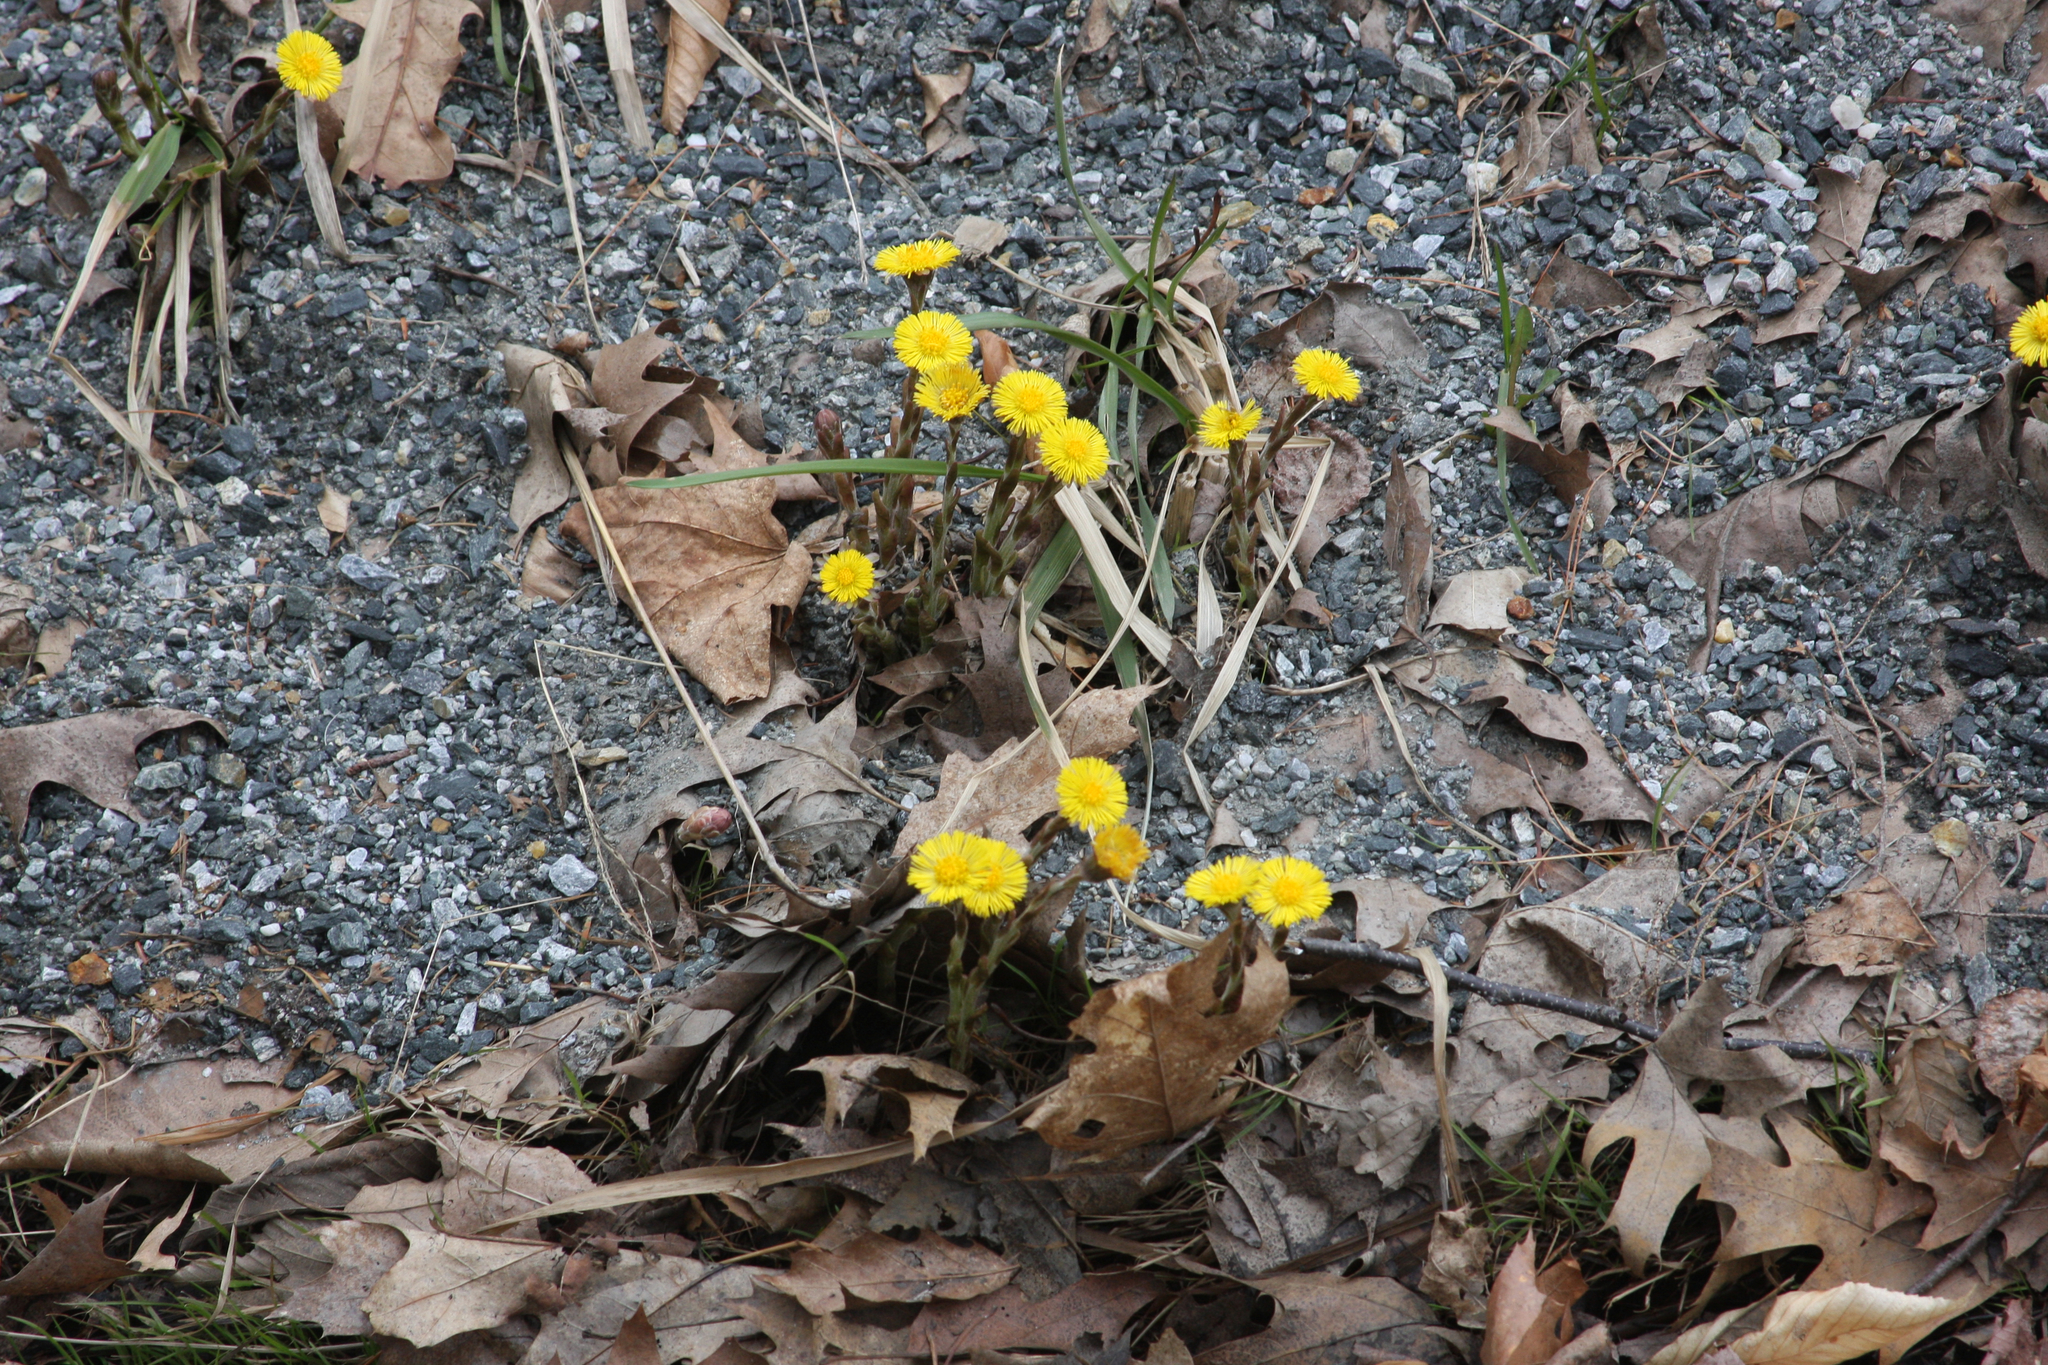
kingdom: Plantae
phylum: Tracheophyta
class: Magnoliopsida
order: Asterales
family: Asteraceae
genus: Tussilago
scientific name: Tussilago farfara
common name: Coltsfoot
